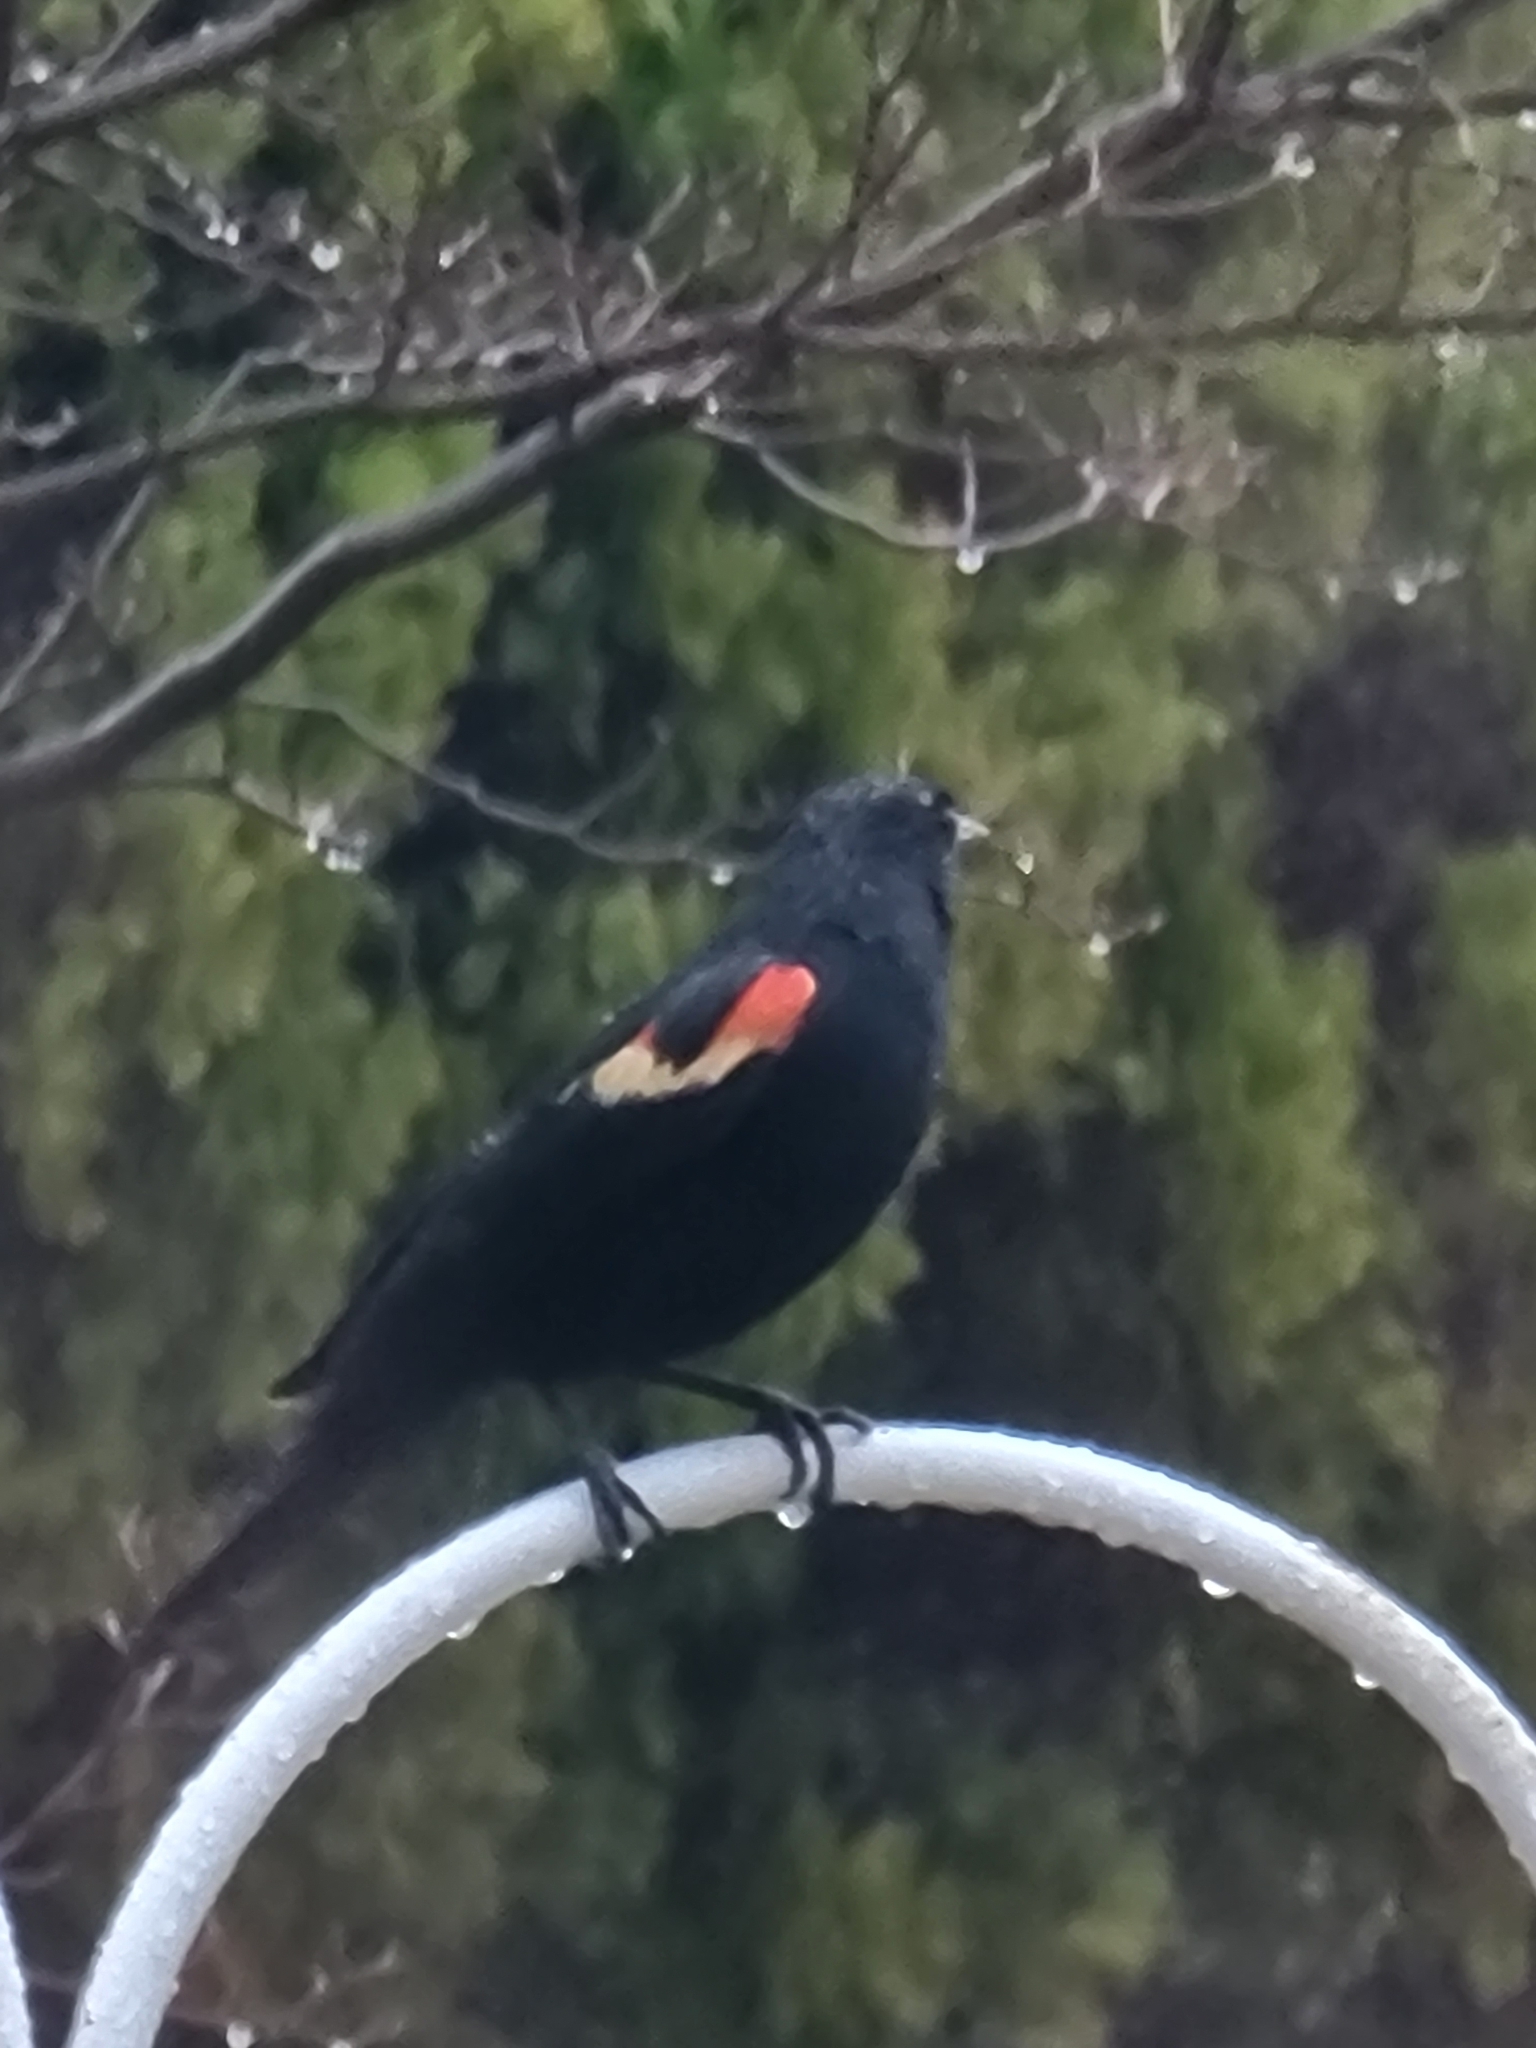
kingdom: Animalia
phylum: Chordata
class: Aves
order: Passeriformes
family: Icteridae
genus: Agelaius
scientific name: Agelaius phoeniceus
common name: Red-winged blackbird
